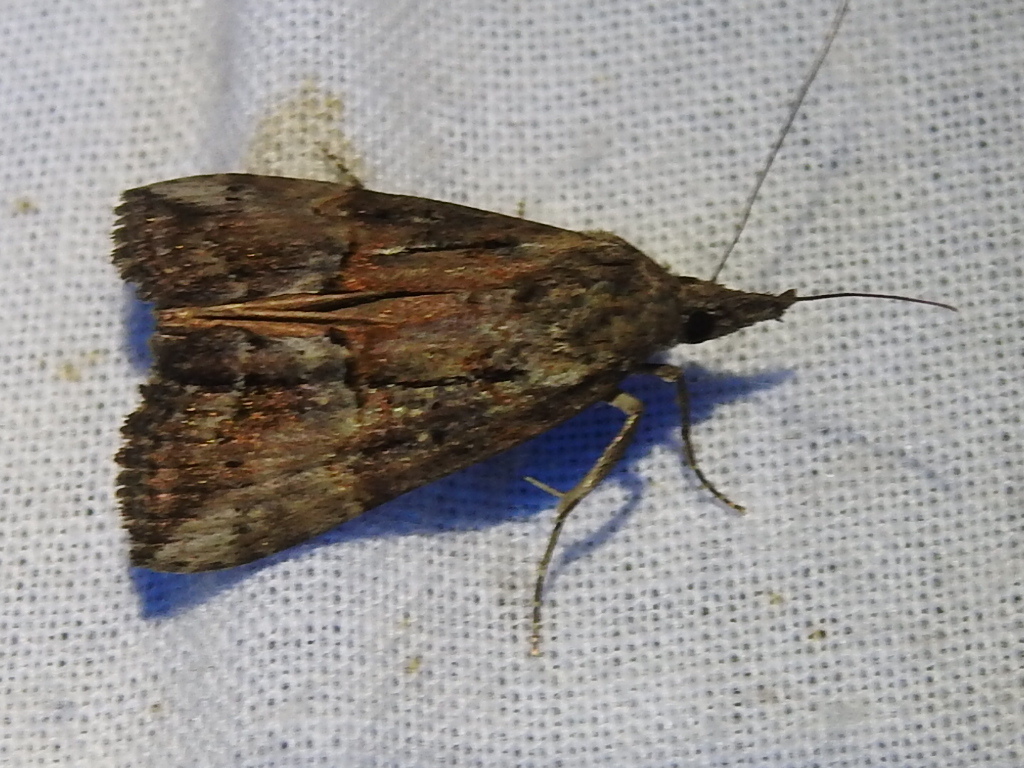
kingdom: Animalia
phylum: Arthropoda
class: Insecta
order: Lepidoptera
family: Erebidae
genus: Hypena
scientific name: Hypena scabra
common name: Green cloverworm
